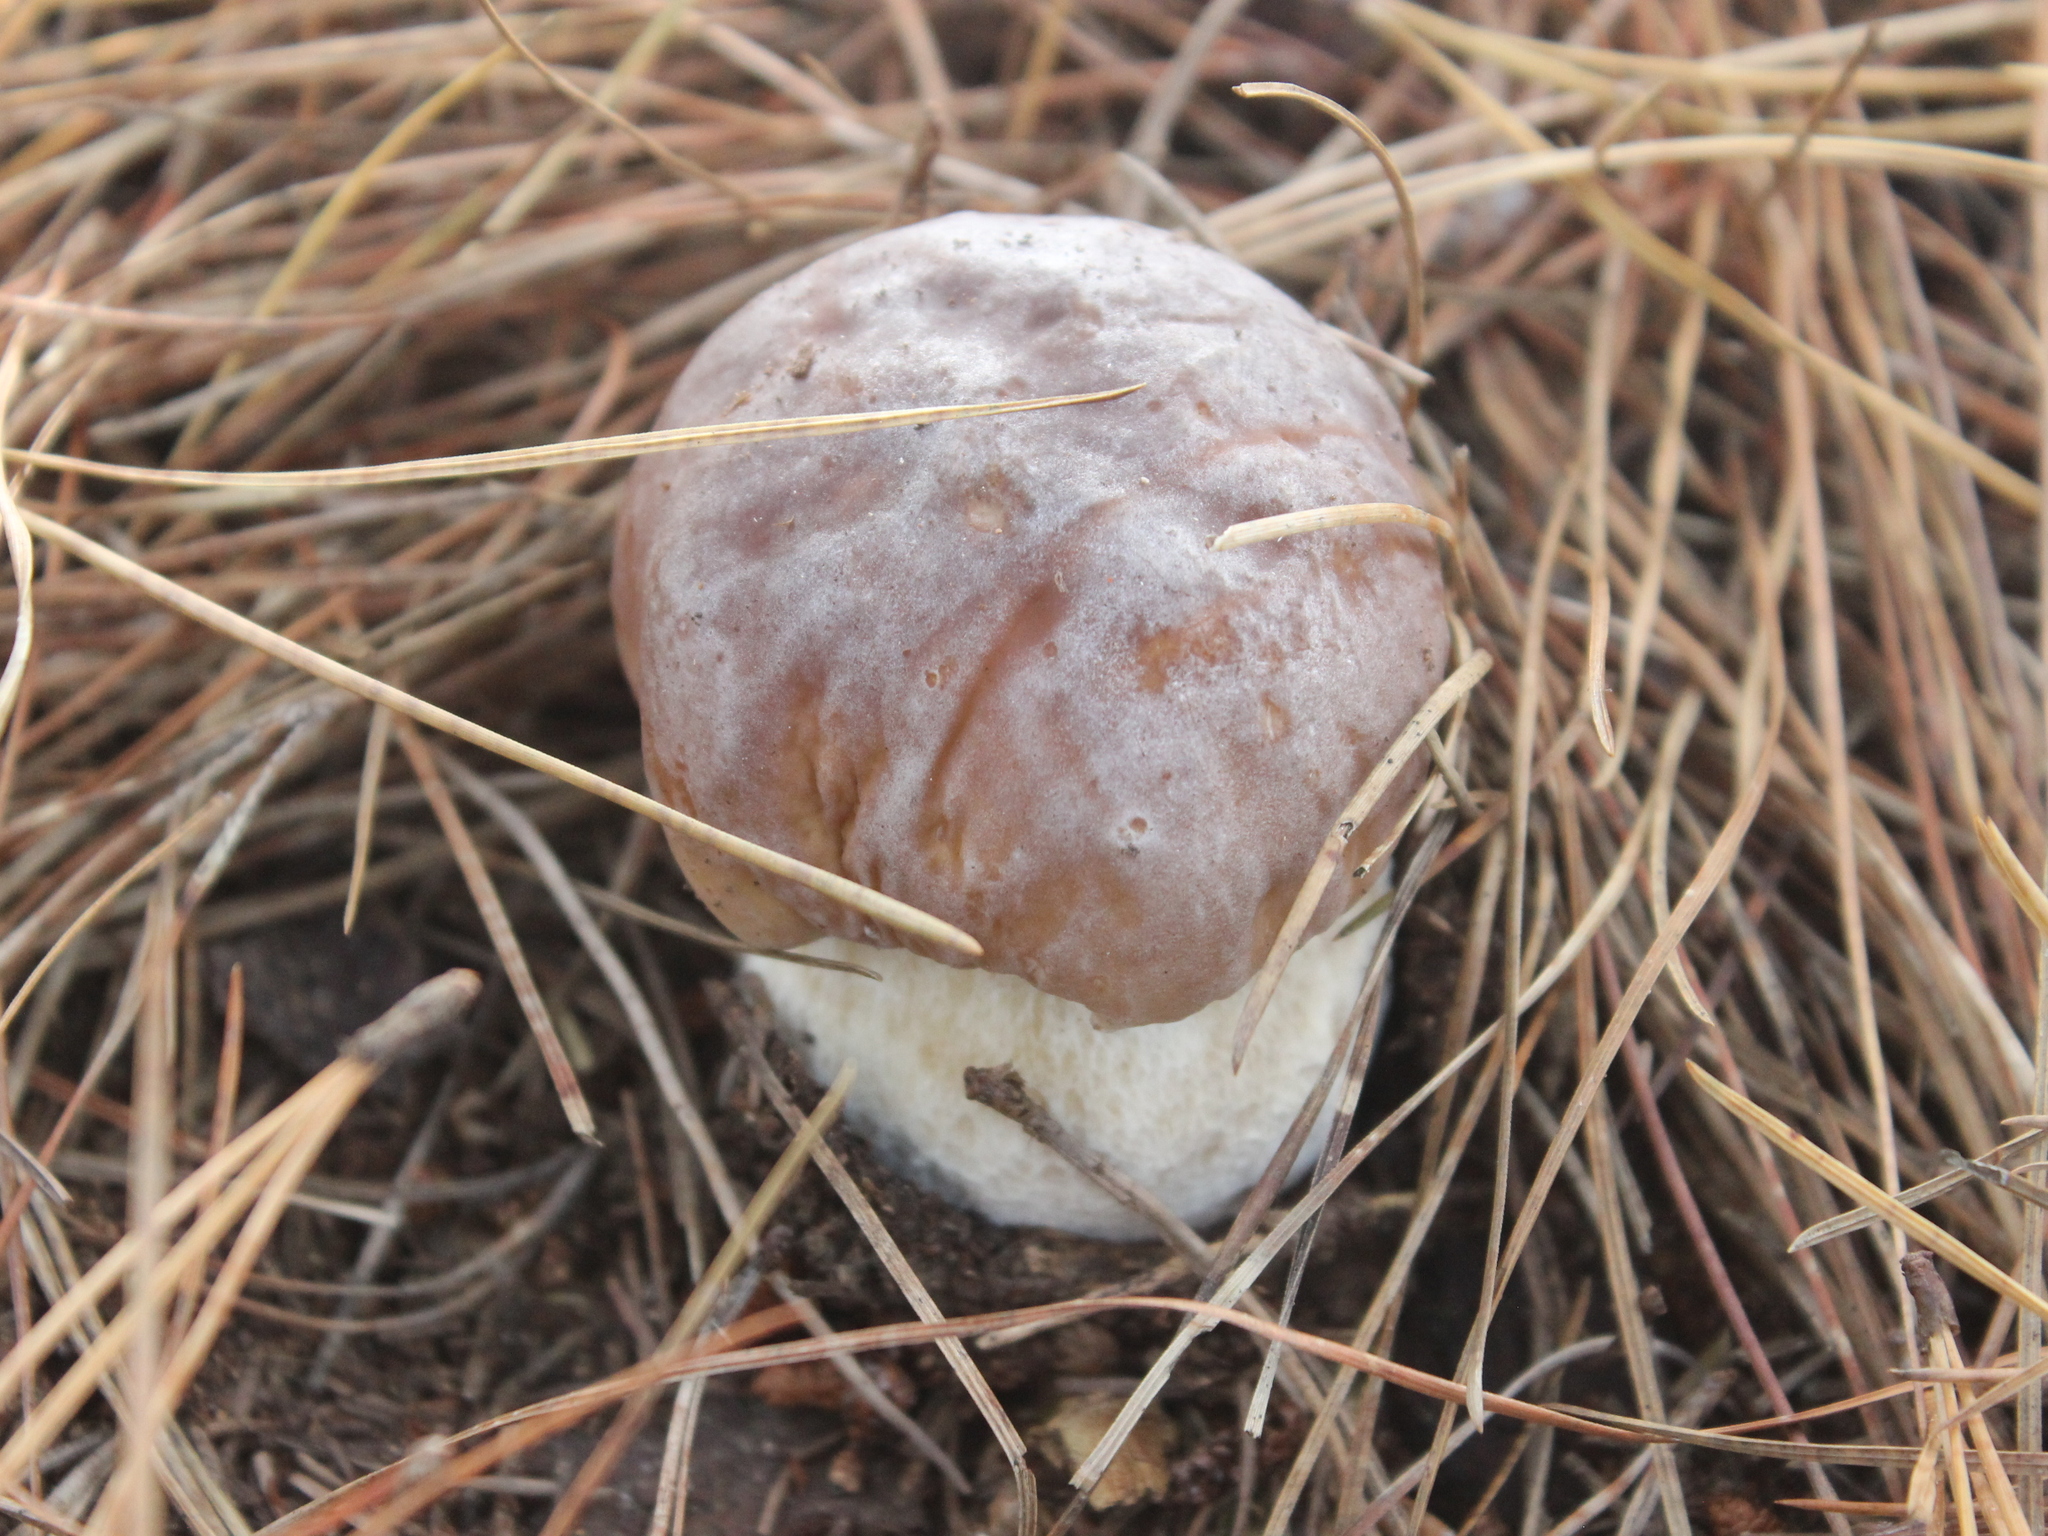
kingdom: Fungi
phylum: Basidiomycota
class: Agaricomycetes
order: Boletales
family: Boletaceae
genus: Boletus
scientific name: Boletus edulis
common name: Cep
